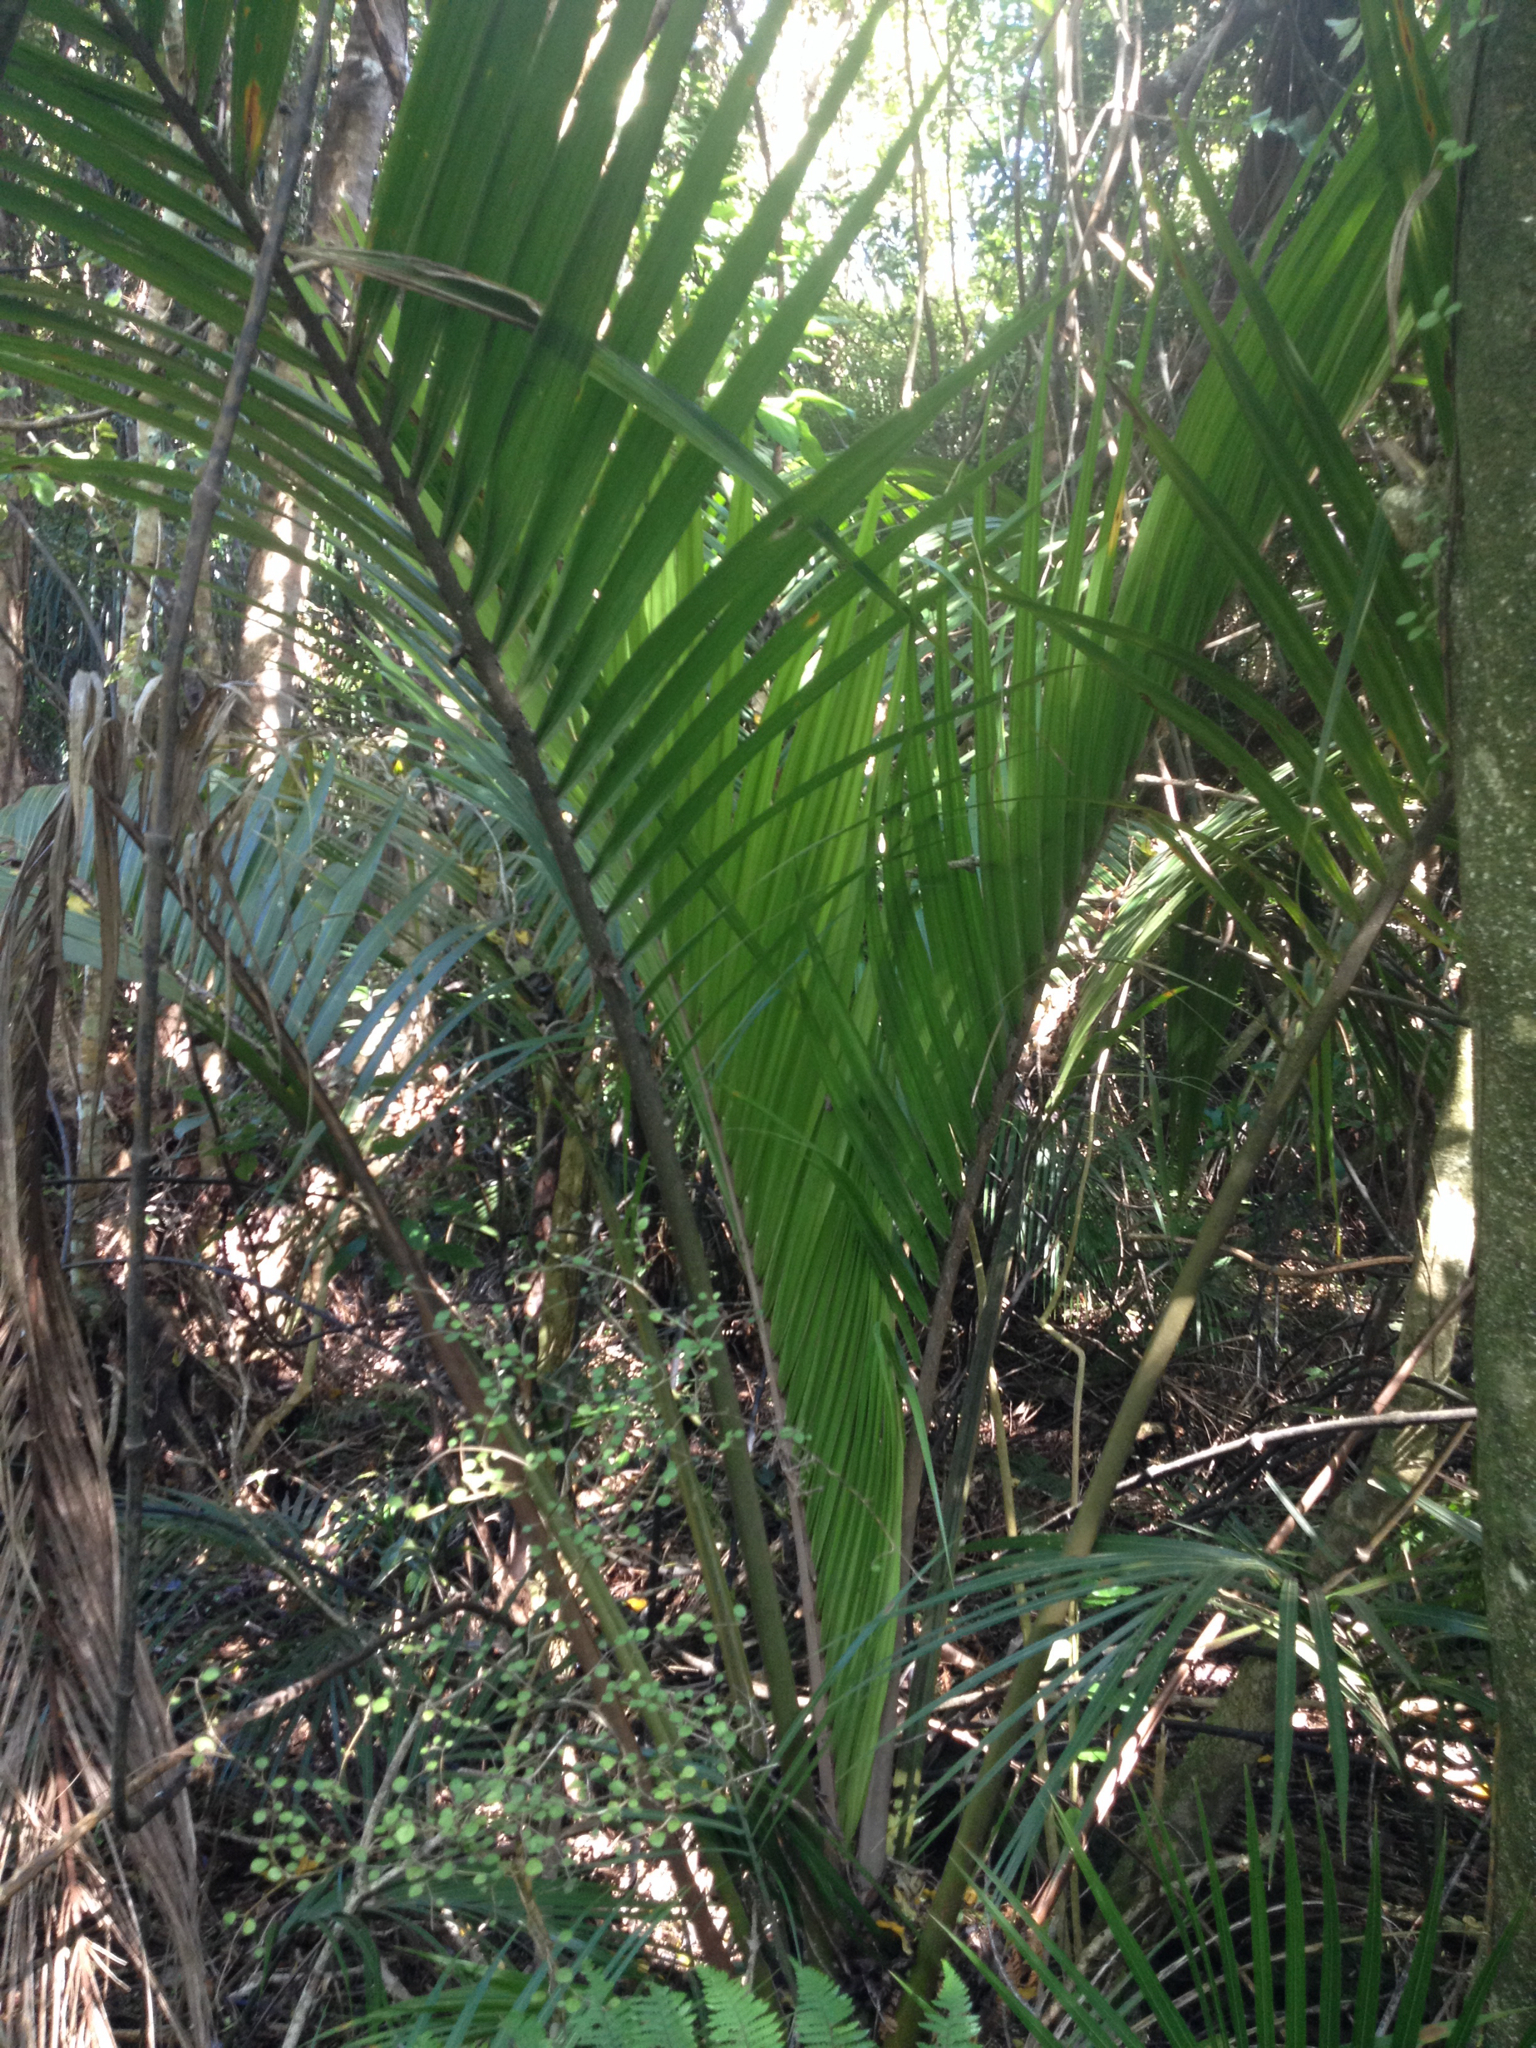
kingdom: Plantae
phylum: Tracheophyta
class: Liliopsida
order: Arecales
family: Arecaceae
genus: Rhopalostylis
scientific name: Rhopalostylis sapida
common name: Feather-duster palm
